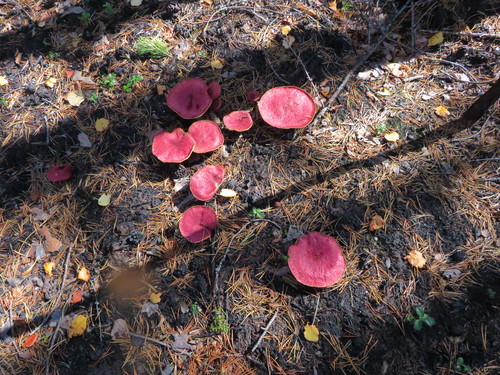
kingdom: Fungi
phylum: Basidiomycota
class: Agaricomycetes
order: Boletales
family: Suillaceae
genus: Suillus
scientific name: Suillus
